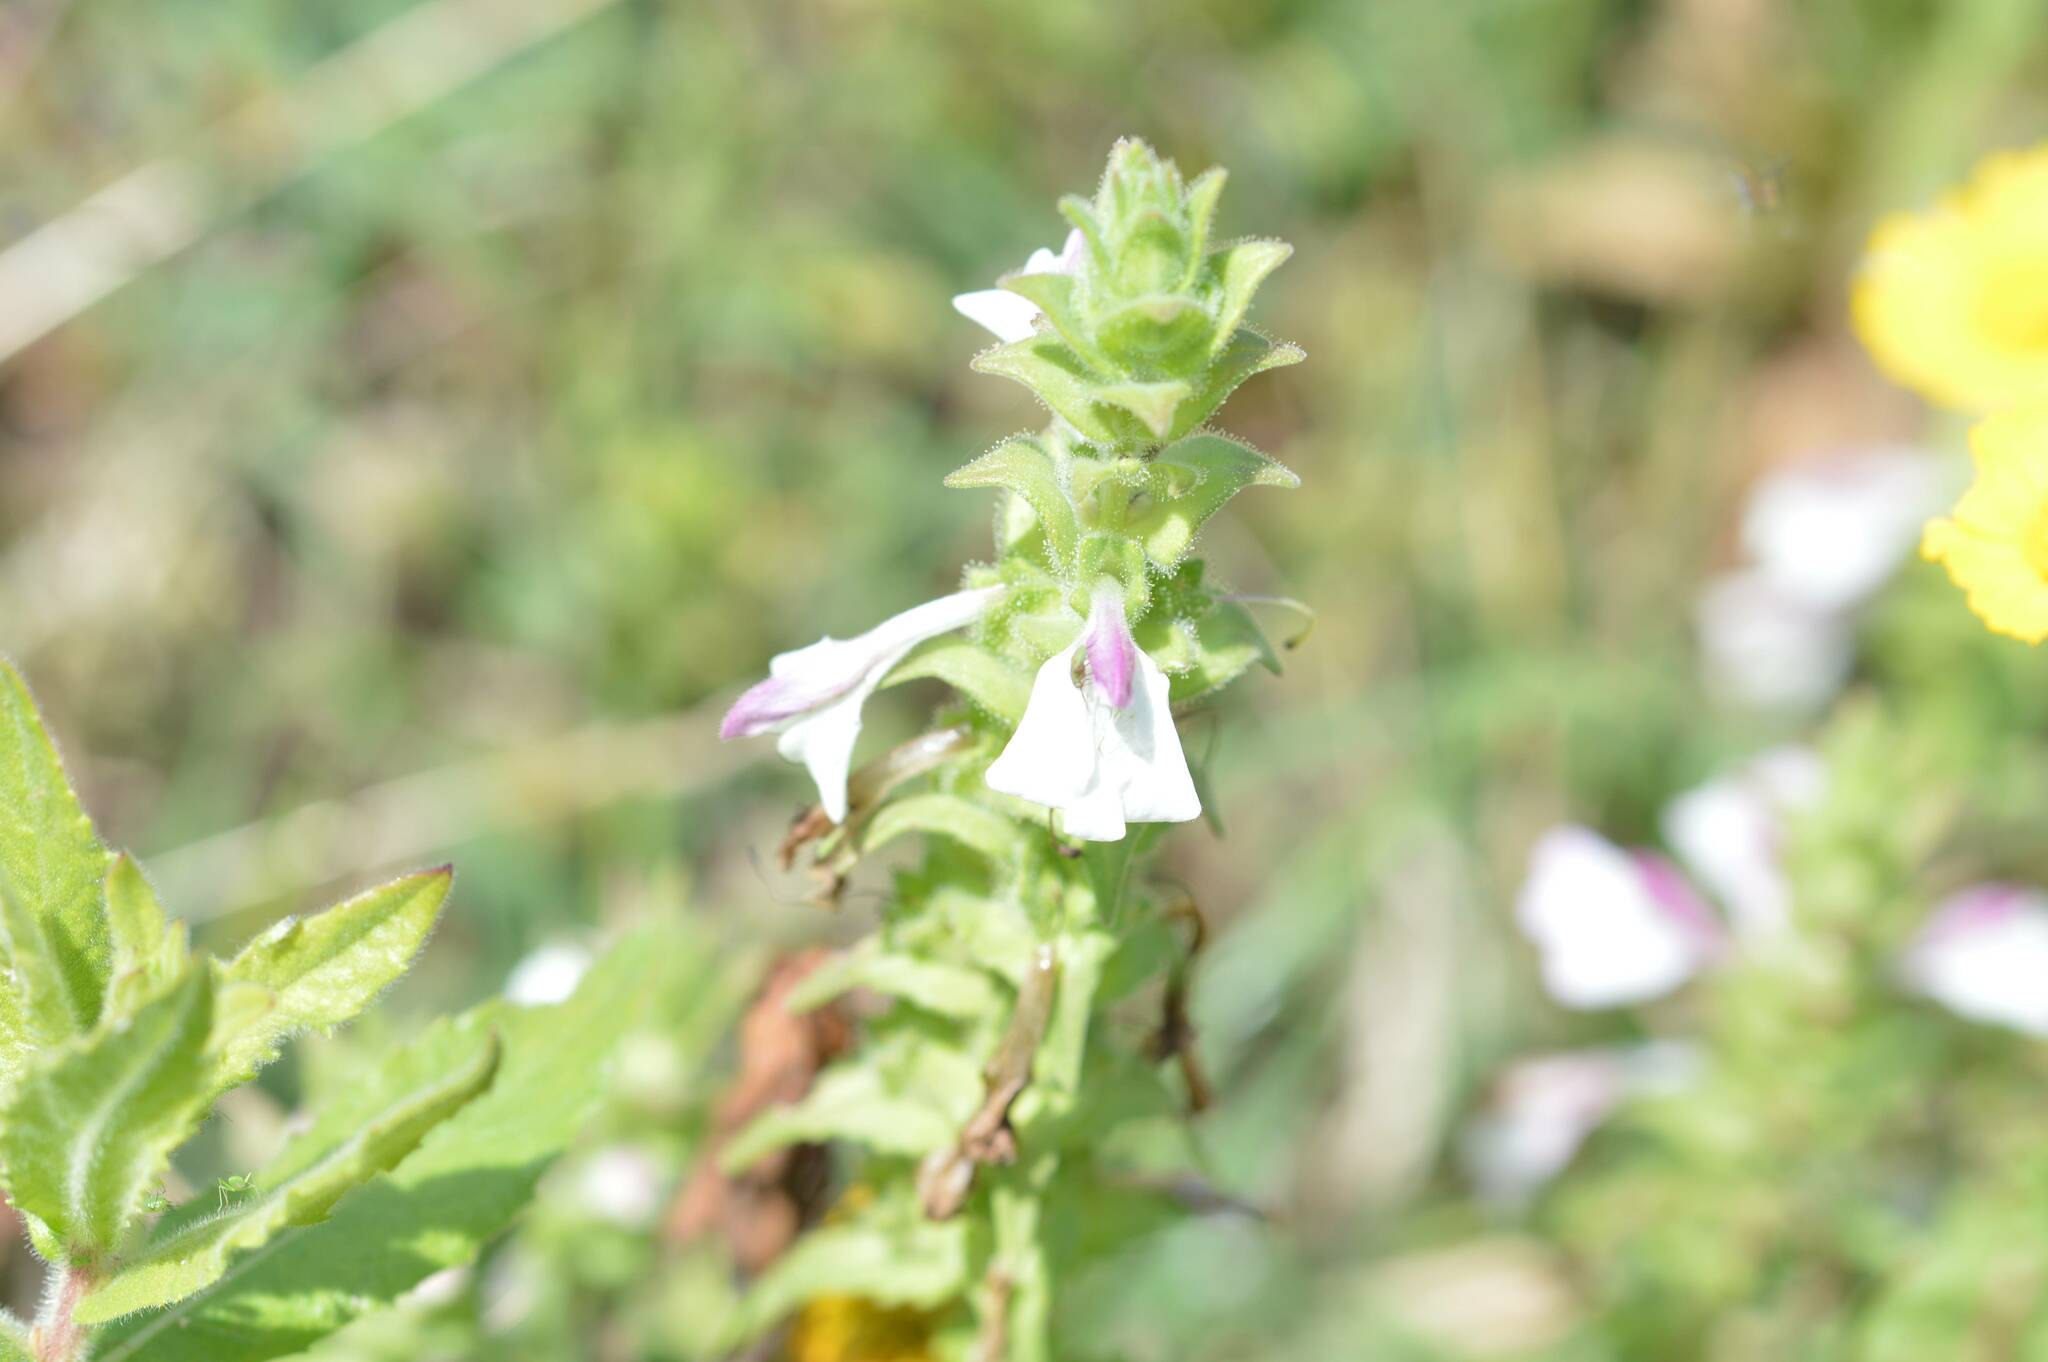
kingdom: Plantae
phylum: Tracheophyta
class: Magnoliopsida
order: Lamiales
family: Orobanchaceae
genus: Bellardia
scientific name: Bellardia trixago
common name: Mediterranean lineseed
